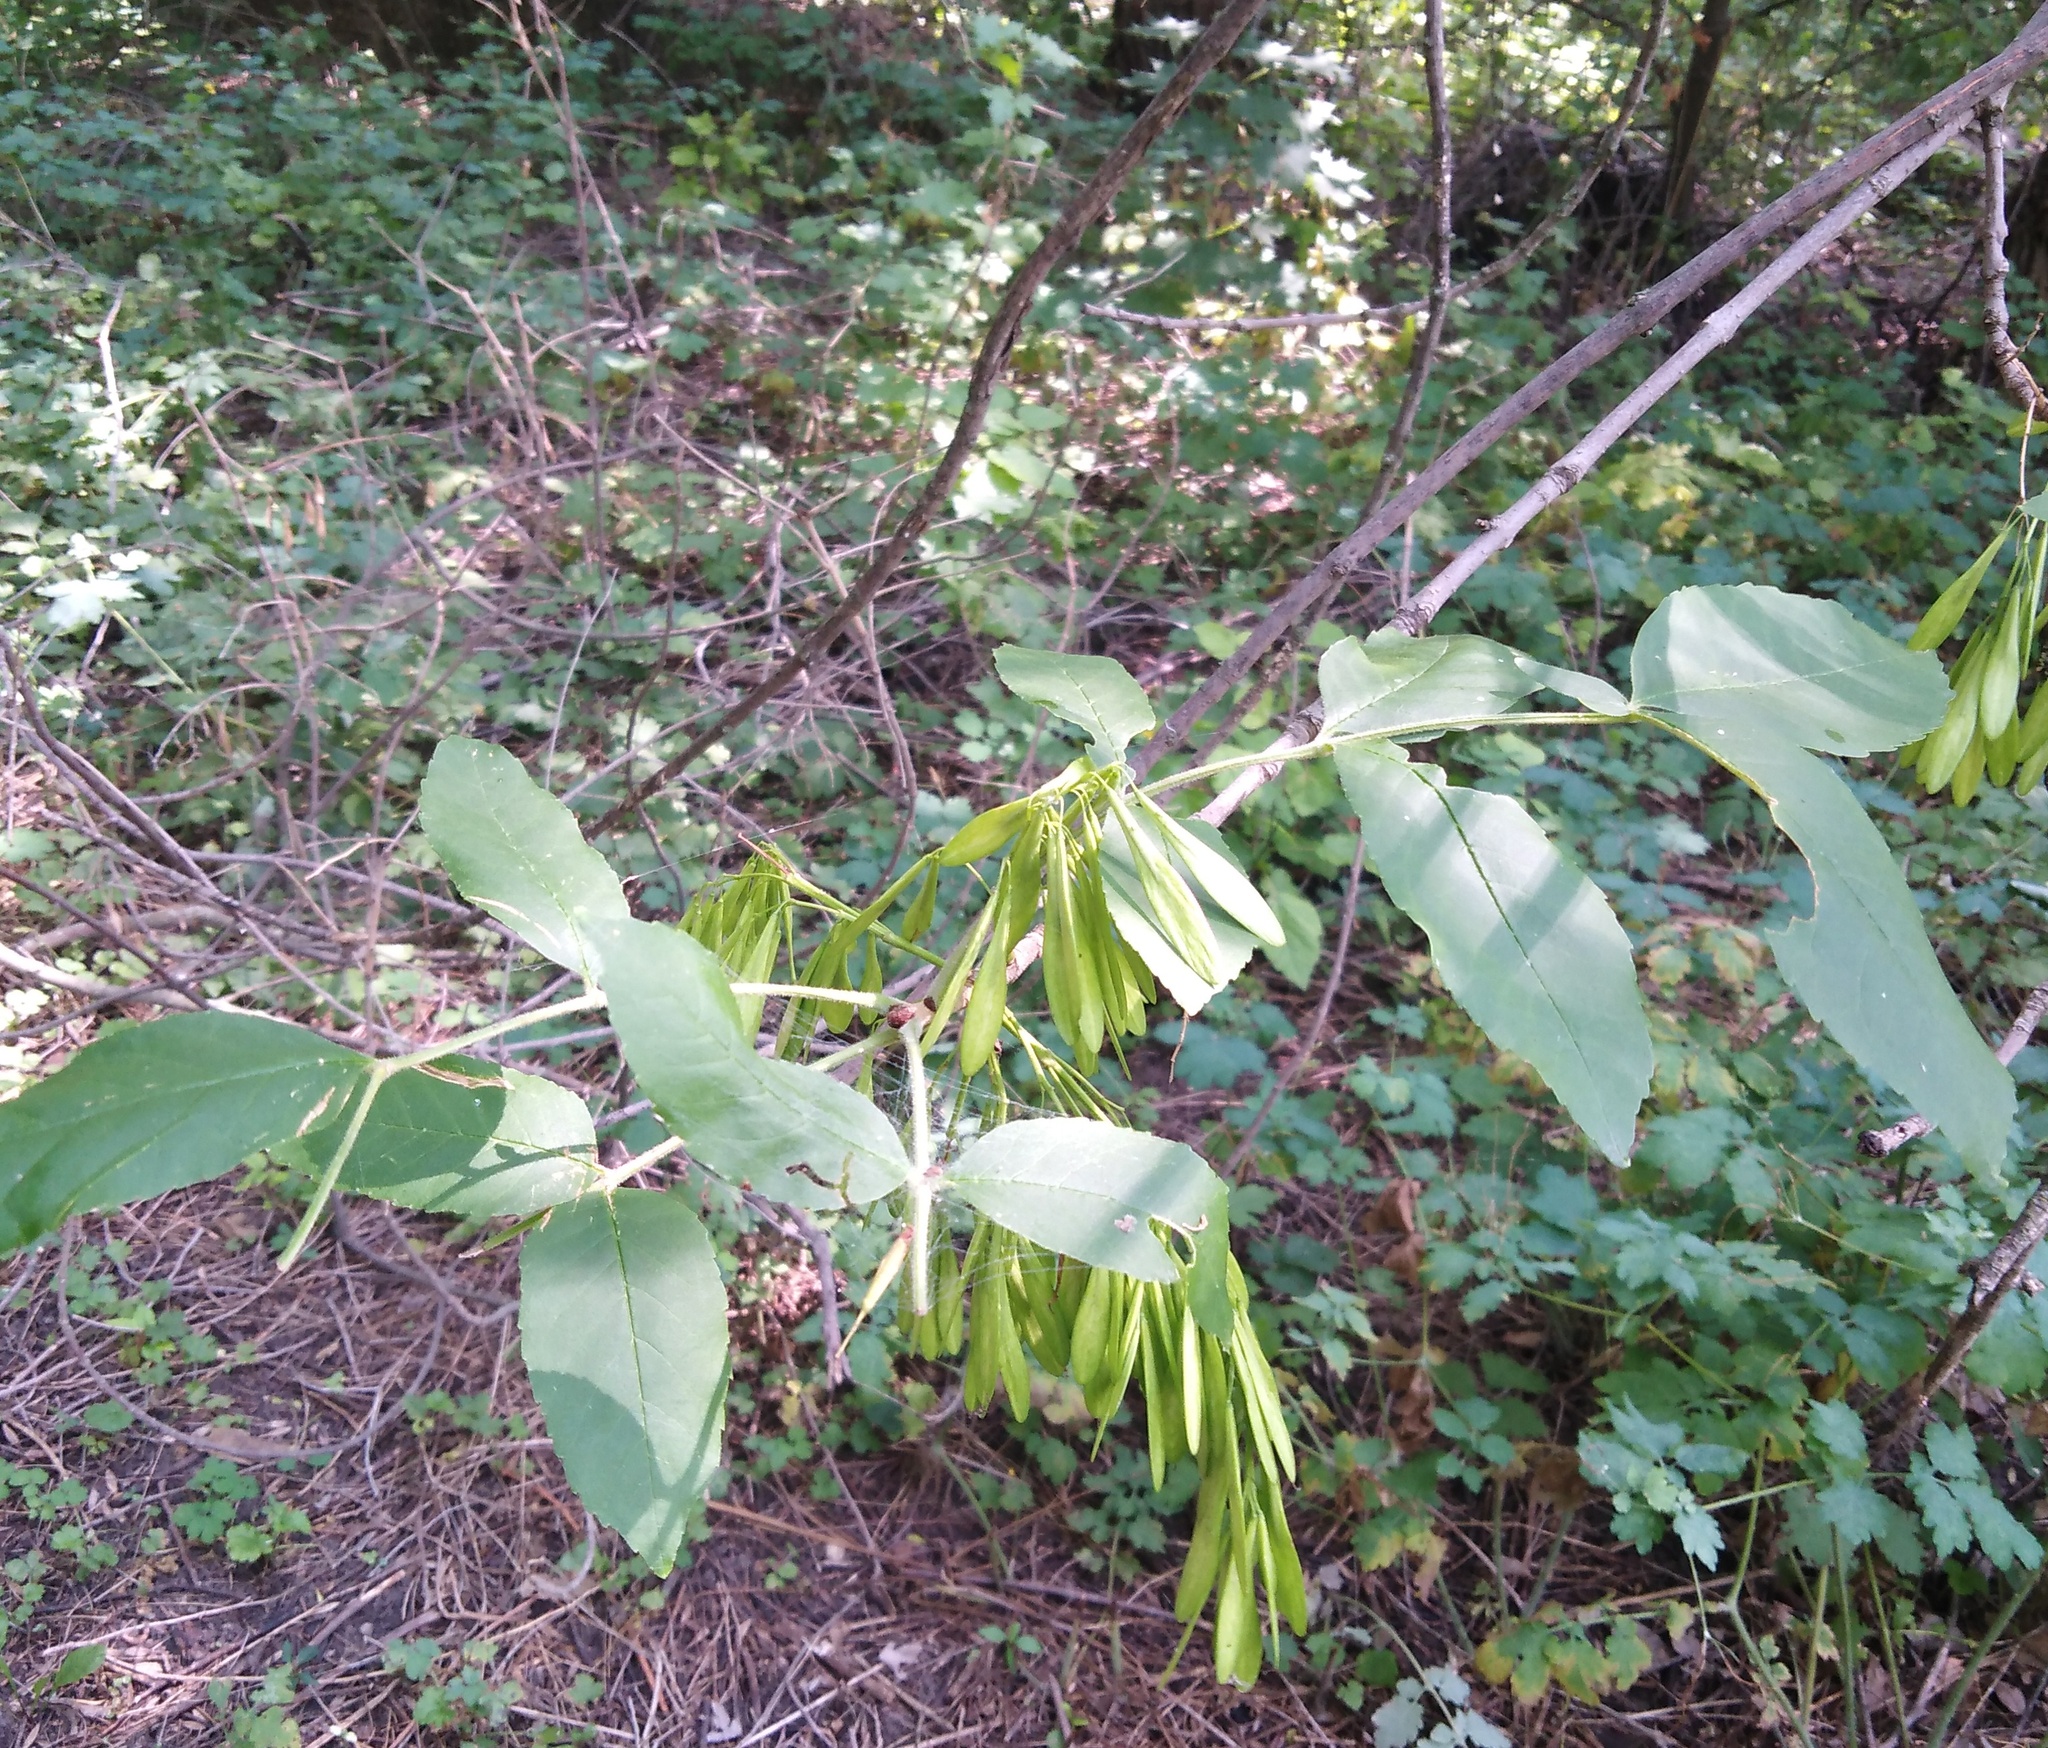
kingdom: Plantae
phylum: Tracheophyta
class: Magnoliopsida
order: Lamiales
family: Oleaceae
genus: Fraxinus
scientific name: Fraxinus pennsylvanica
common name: Green ash
